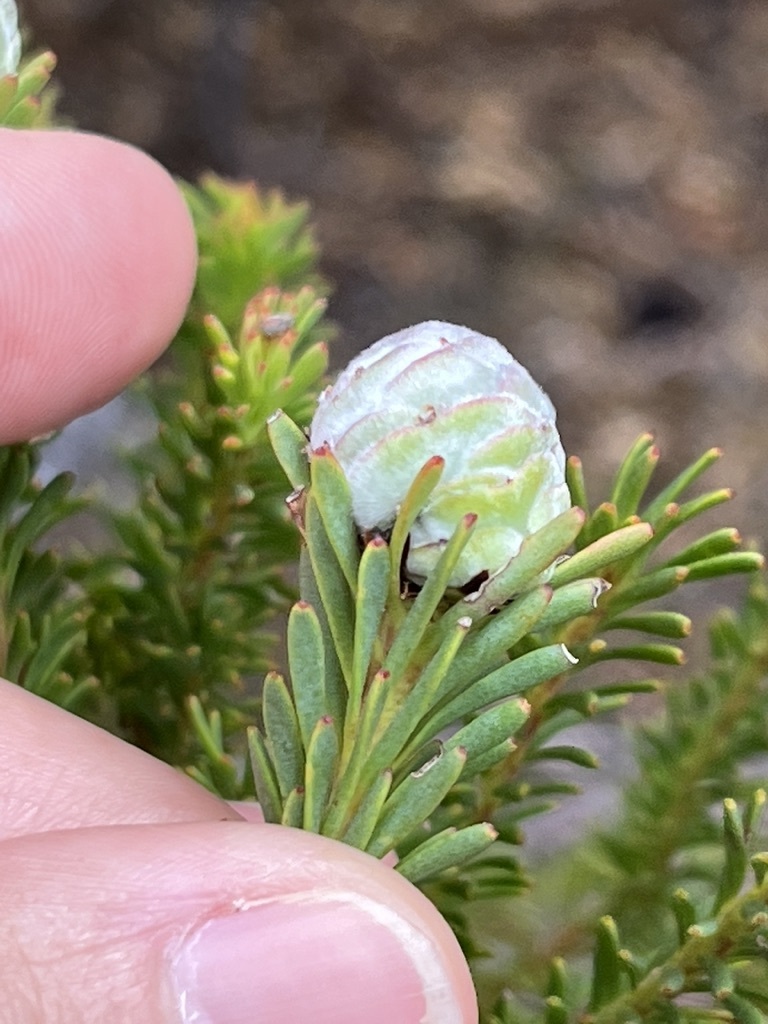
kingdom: Plantae
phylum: Tracheophyta
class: Magnoliopsida
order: Proteales
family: Proteaceae
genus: Leucadendron
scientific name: Leucadendron linifolium
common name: Line-leaf conebush
